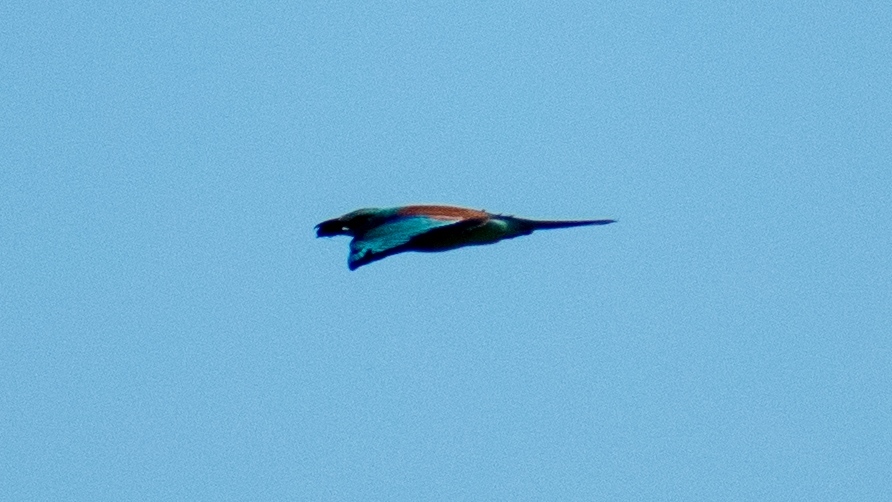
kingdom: Animalia
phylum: Chordata
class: Aves
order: Coraciiformes
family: Coraciidae
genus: Coracias
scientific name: Coracias garrulus
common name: European roller
